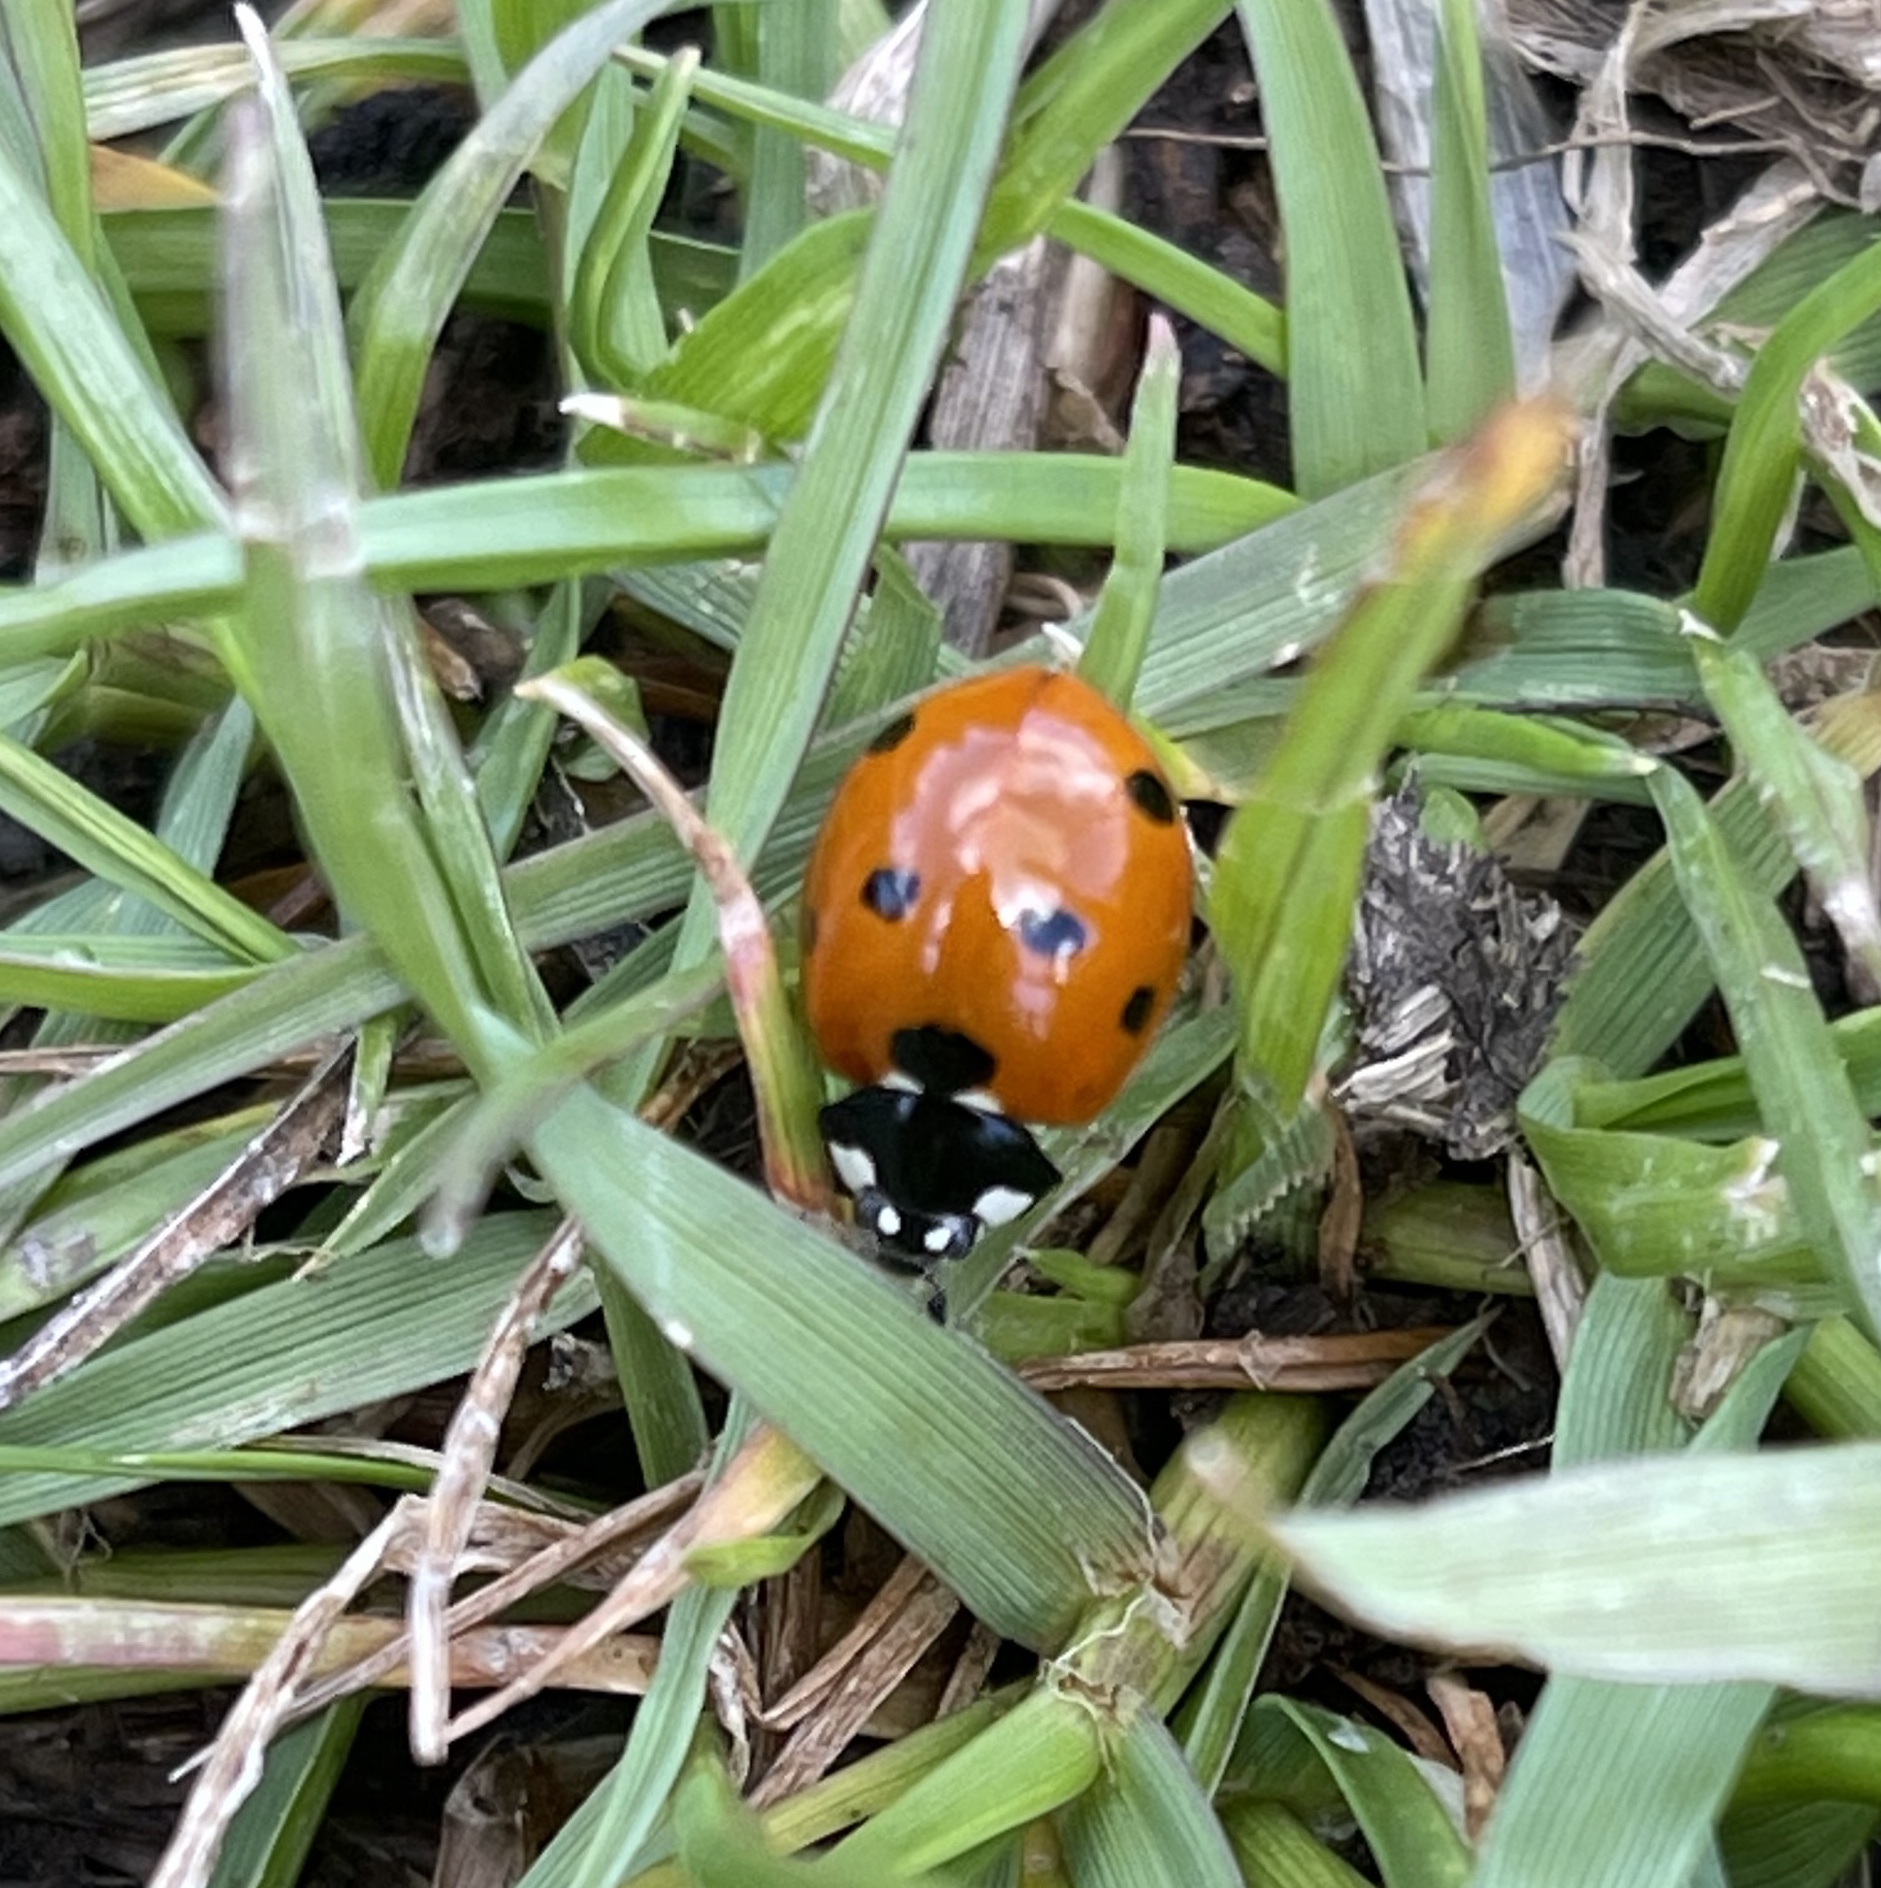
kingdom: Animalia
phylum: Arthropoda
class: Insecta
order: Coleoptera
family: Coccinellidae
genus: Coccinella
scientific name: Coccinella septempunctata
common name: Sevenspotted lady beetle
